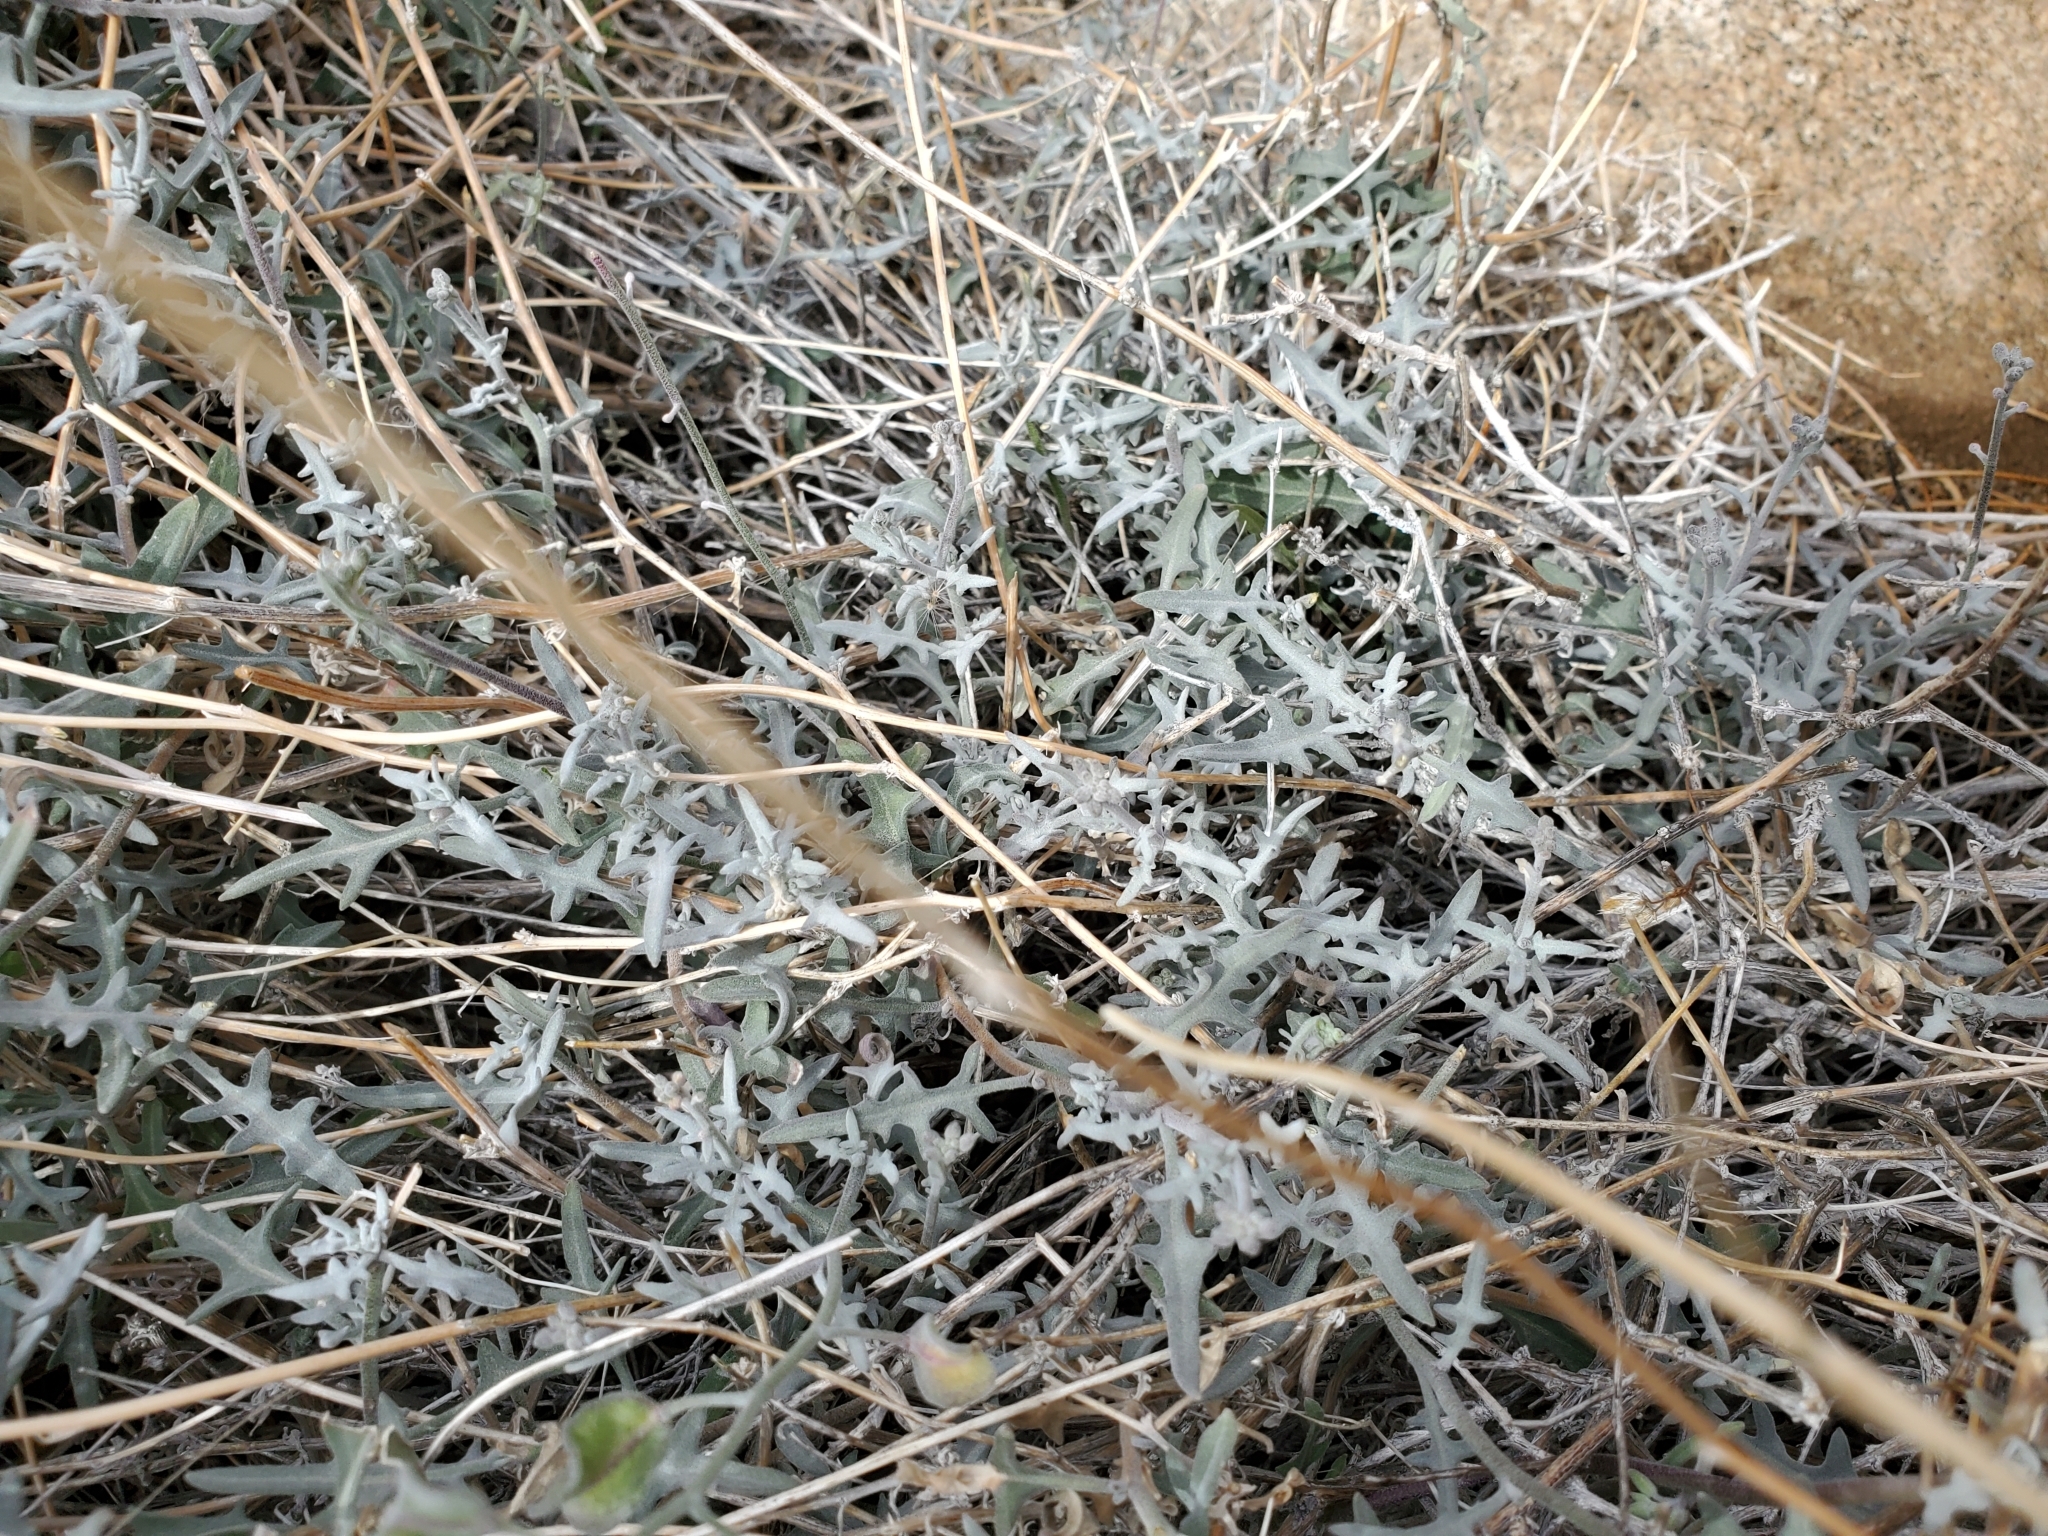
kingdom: Plantae
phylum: Tracheophyta
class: Magnoliopsida
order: Brassicales
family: Brassicaceae
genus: Lyrocarpa
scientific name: Lyrocarpa coulteri
